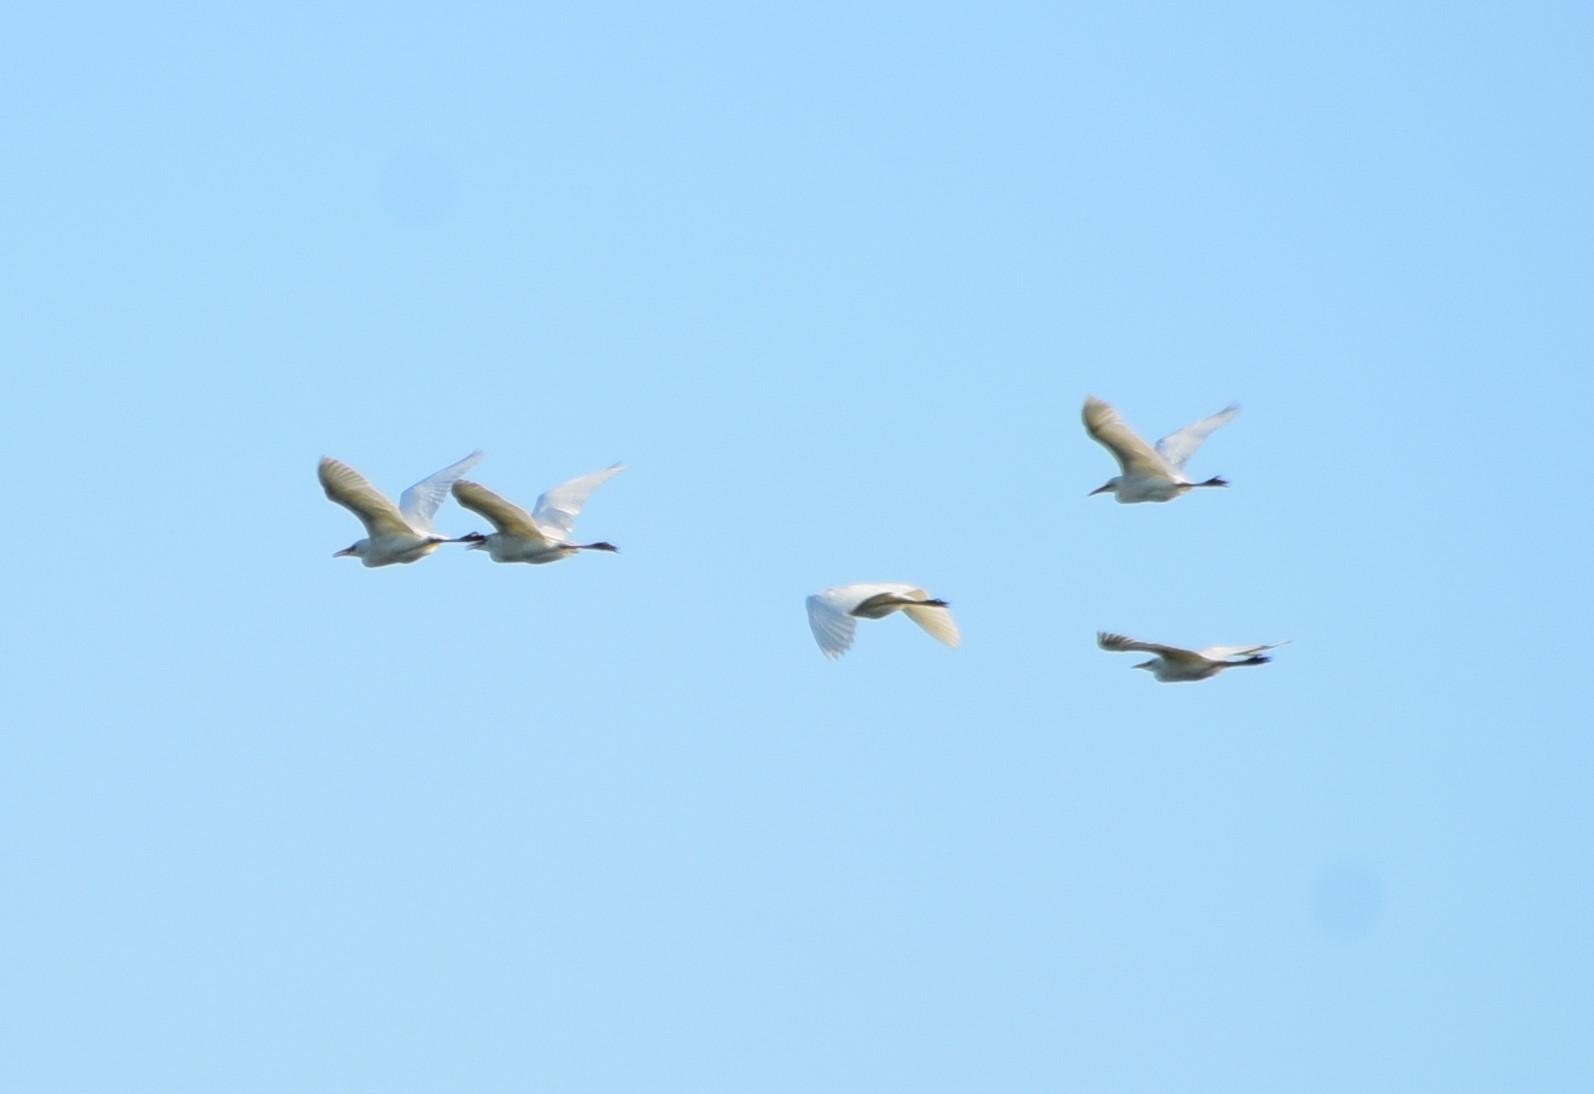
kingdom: Animalia
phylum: Chordata
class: Aves
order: Pelecaniformes
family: Ardeidae
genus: Bubulcus
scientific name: Bubulcus ibis
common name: Cattle egret
